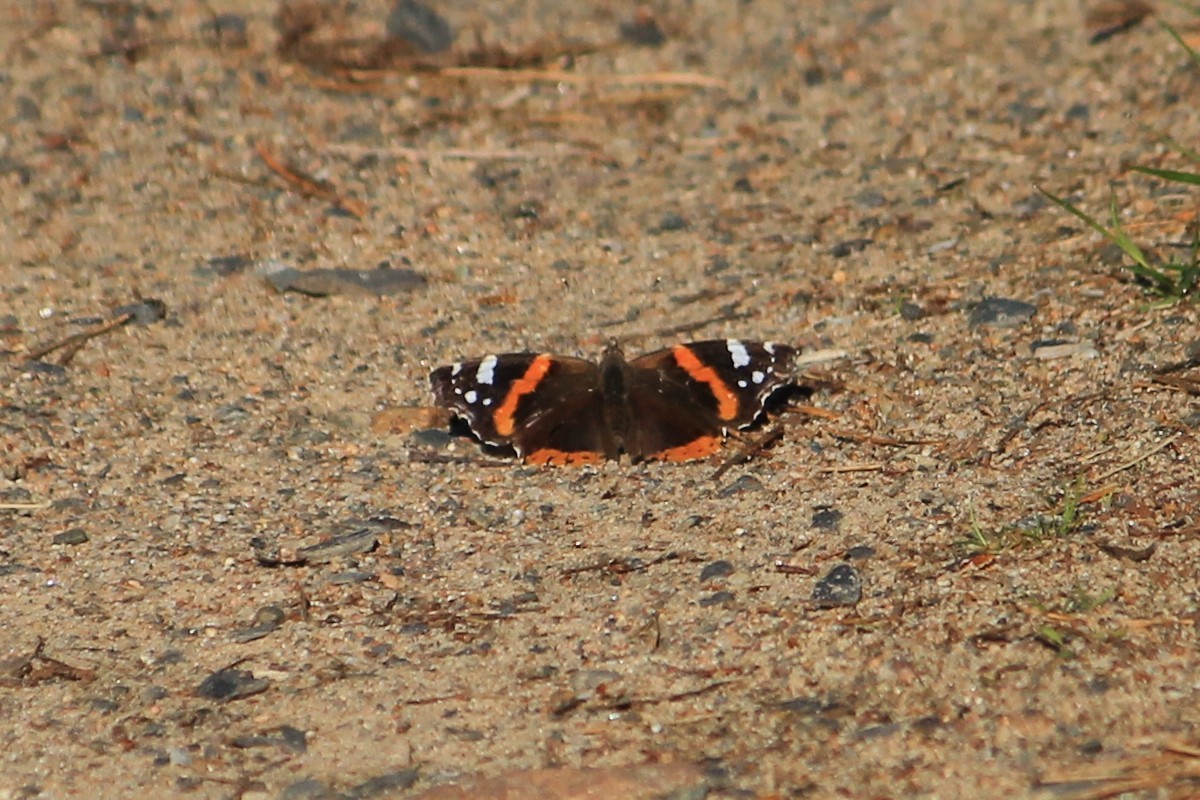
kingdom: Animalia
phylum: Arthropoda
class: Insecta
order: Lepidoptera
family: Nymphalidae
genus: Vanessa
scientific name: Vanessa atalanta
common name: Red admiral
